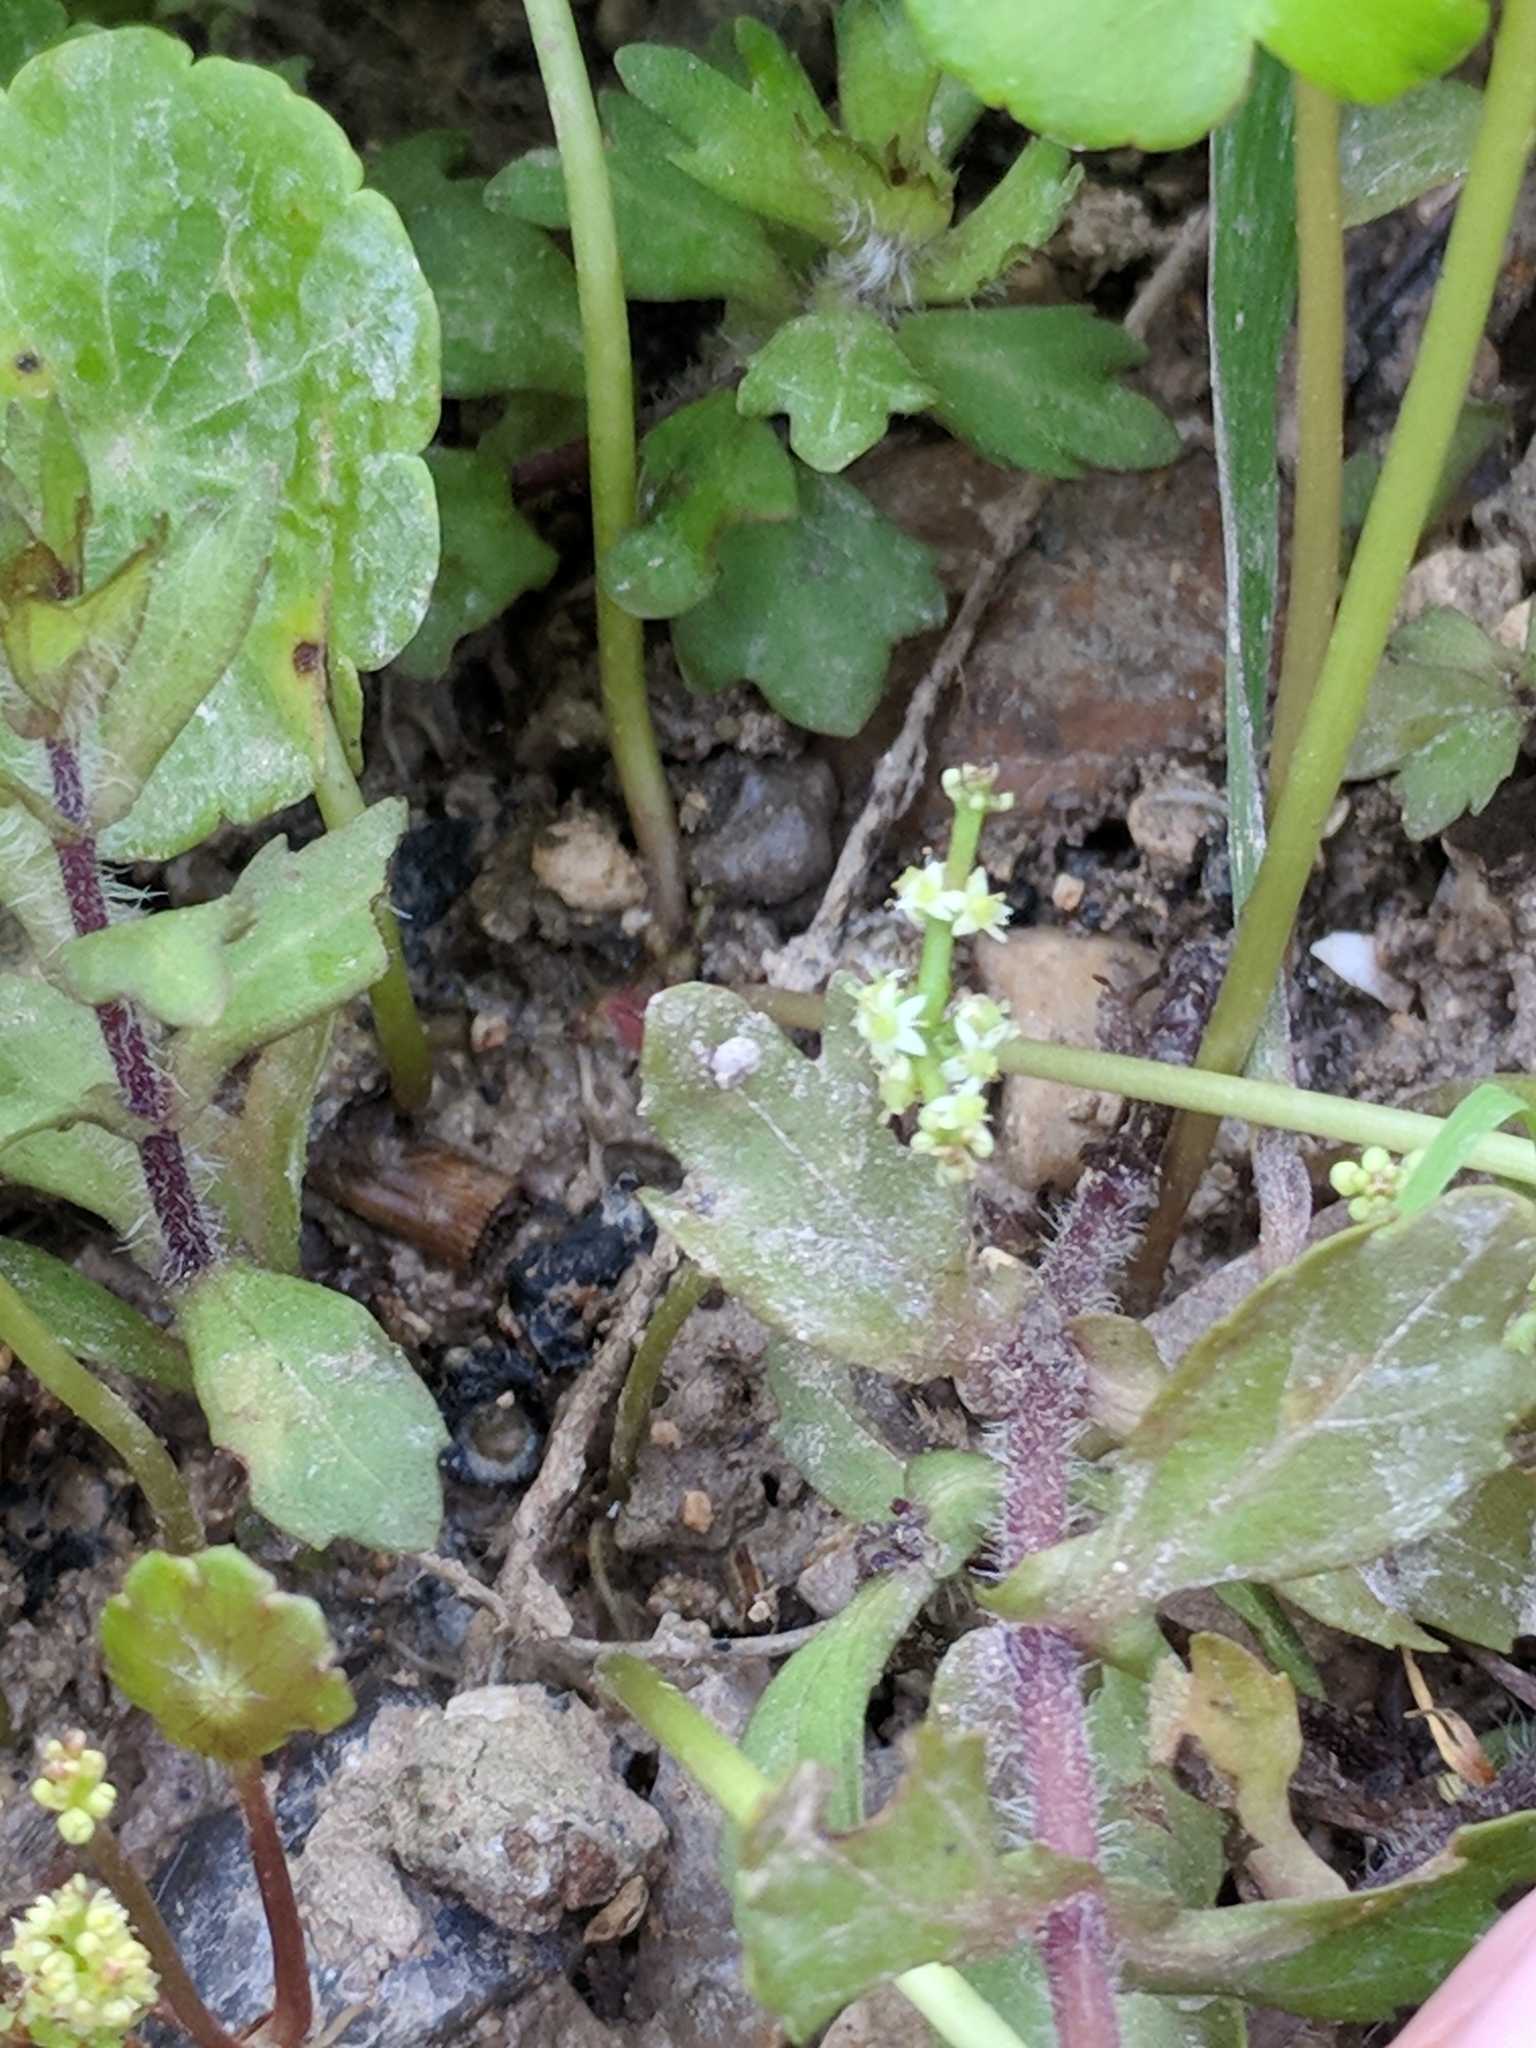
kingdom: Plantae
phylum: Tracheophyta
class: Magnoliopsida
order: Apiales
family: Araliaceae
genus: Hydrocotyle
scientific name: Hydrocotyle verticillata
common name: Whorled marshpennywort
